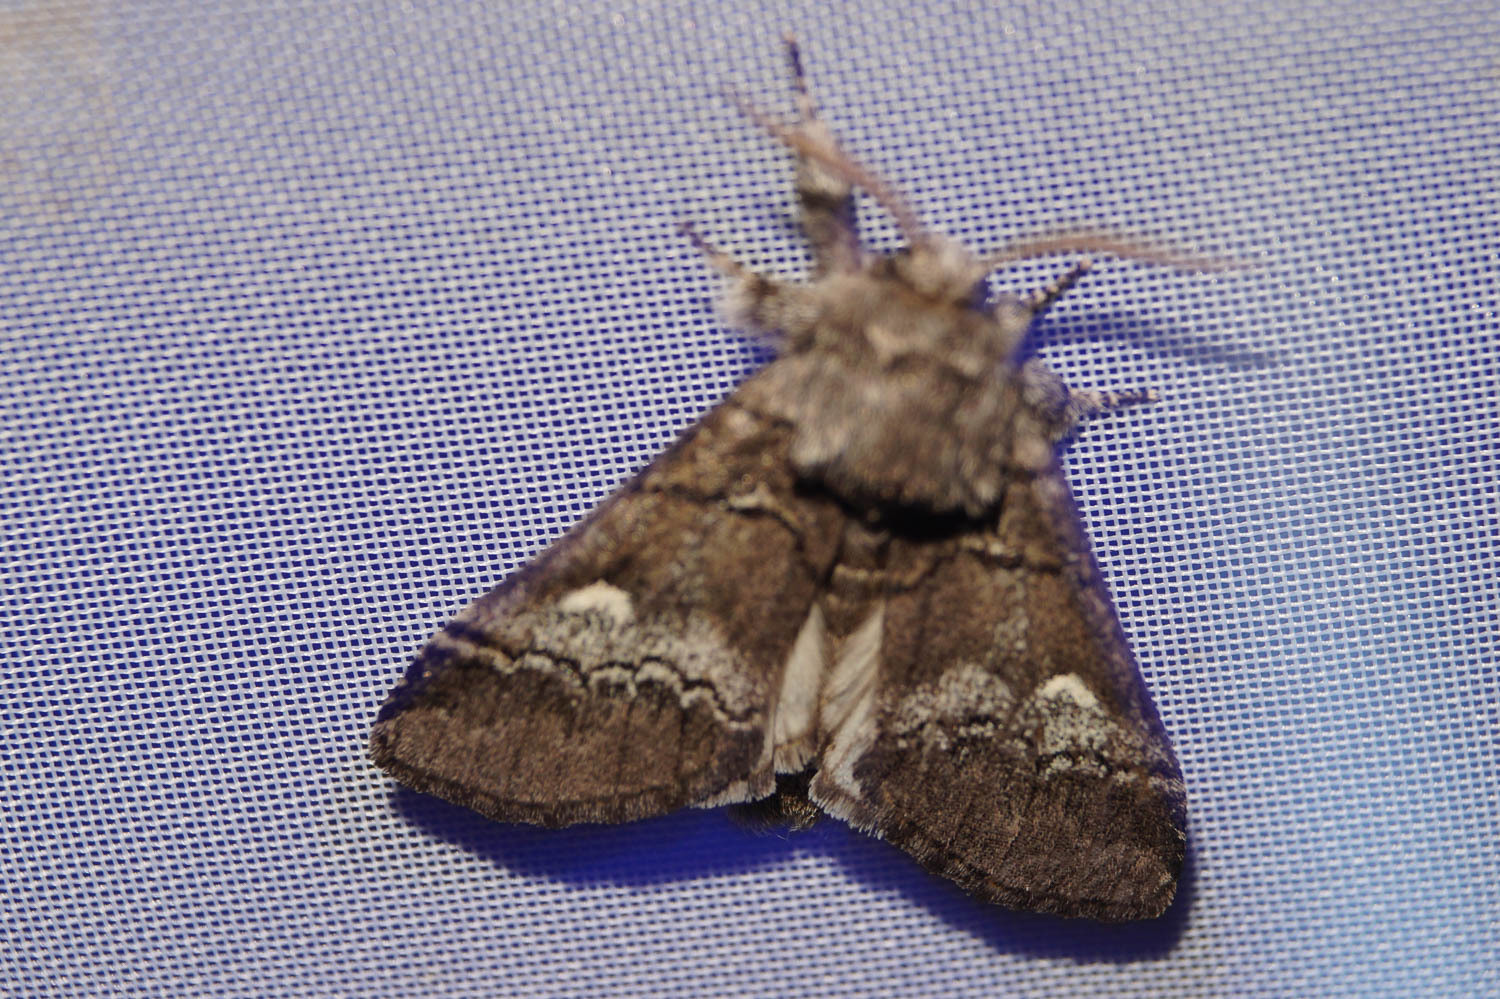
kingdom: Animalia
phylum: Arthropoda
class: Insecta
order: Lepidoptera
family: Notodontidae
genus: Drymonia
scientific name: Drymonia querna
